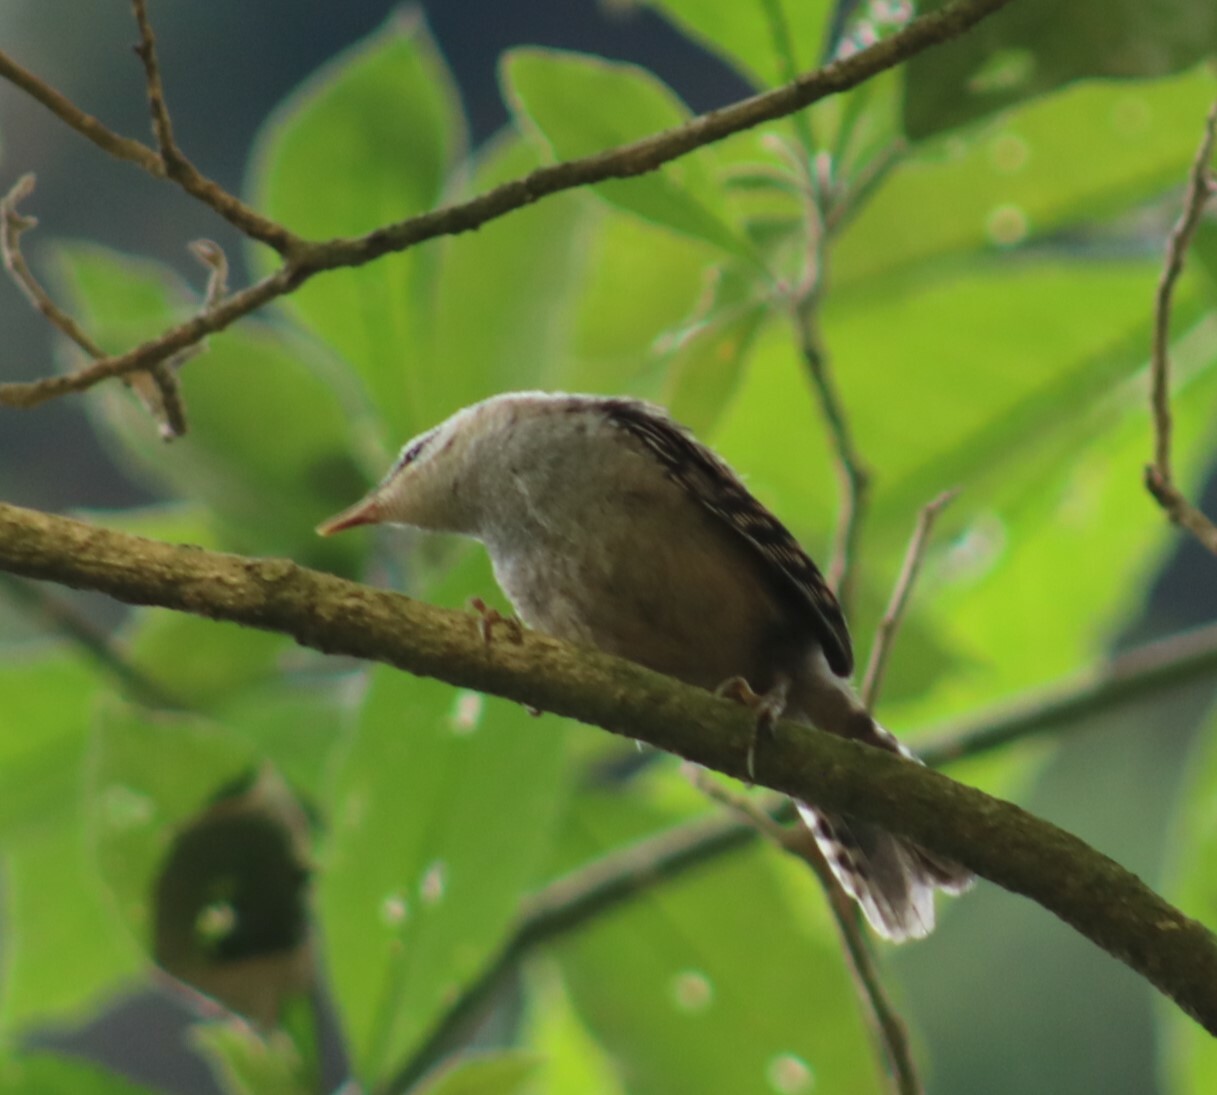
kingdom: Animalia
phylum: Chordata
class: Aves
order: Passeriformes
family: Troglodytidae
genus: Campylorhynchus
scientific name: Campylorhynchus zonatus
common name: Band-backed wren
